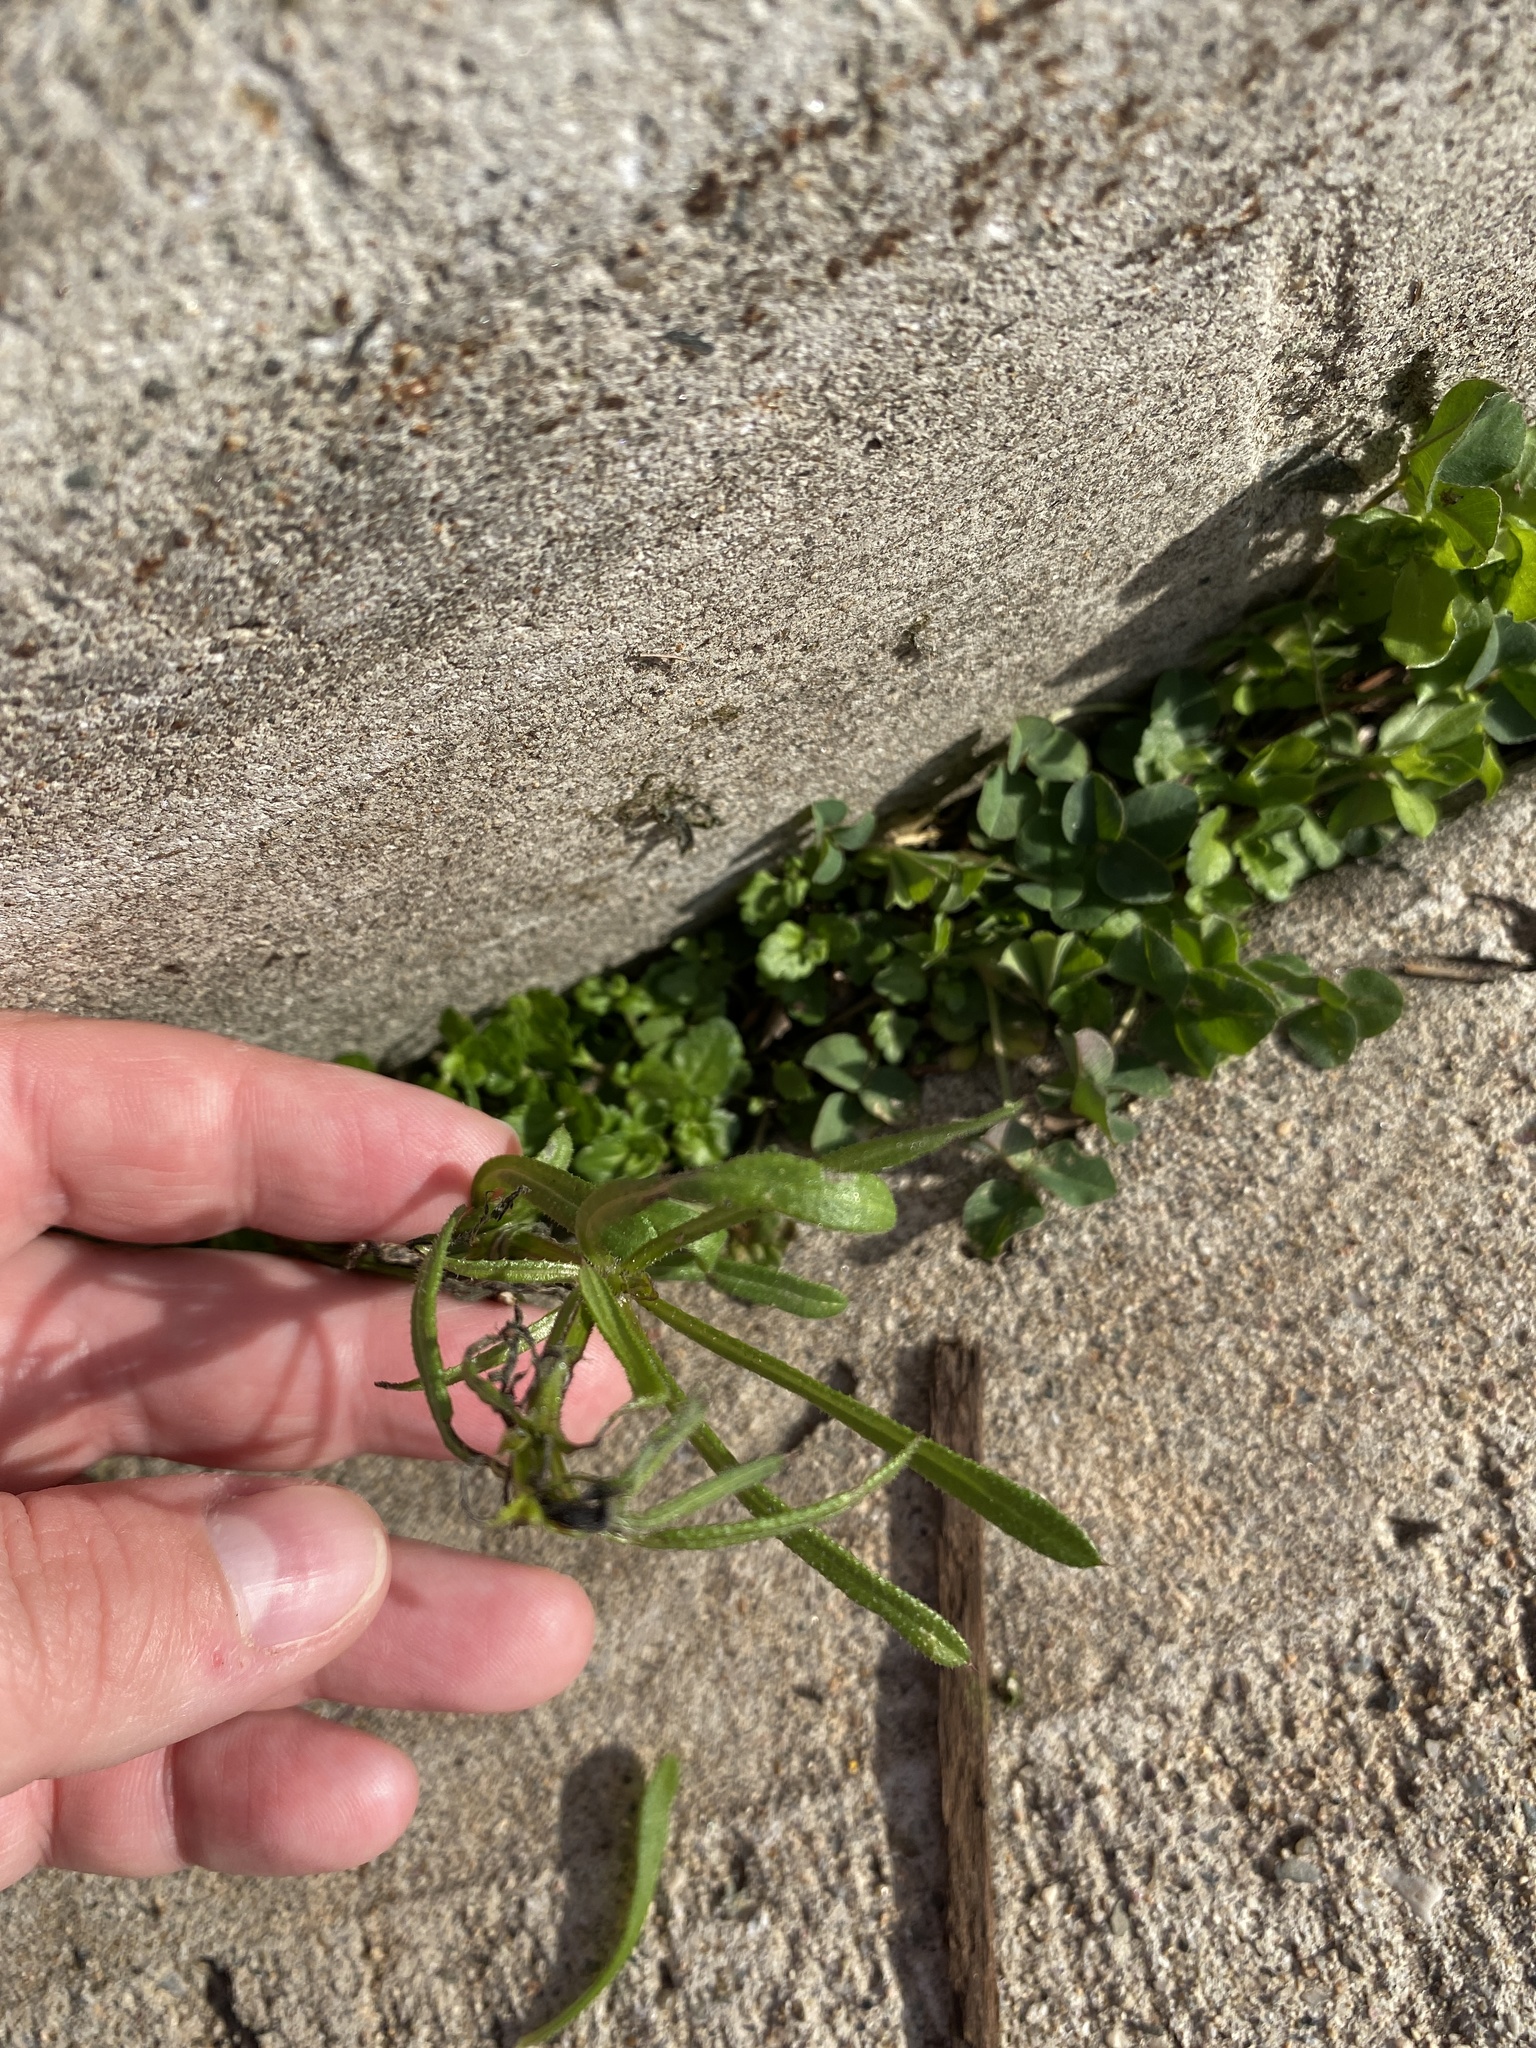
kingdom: Plantae
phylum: Tracheophyta
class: Magnoliopsida
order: Gentianales
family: Rubiaceae
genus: Galium
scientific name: Galium aparine
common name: Cleavers
